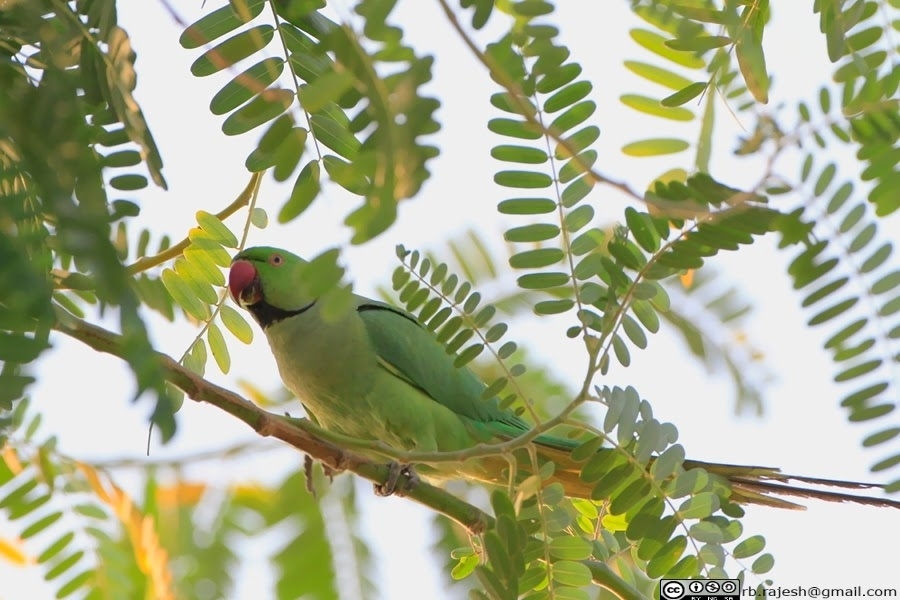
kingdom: Animalia
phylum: Chordata
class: Aves
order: Psittaciformes
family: Psittacidae
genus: Psittacula
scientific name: Psittacula krameri
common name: Rose-ringed parakeet
